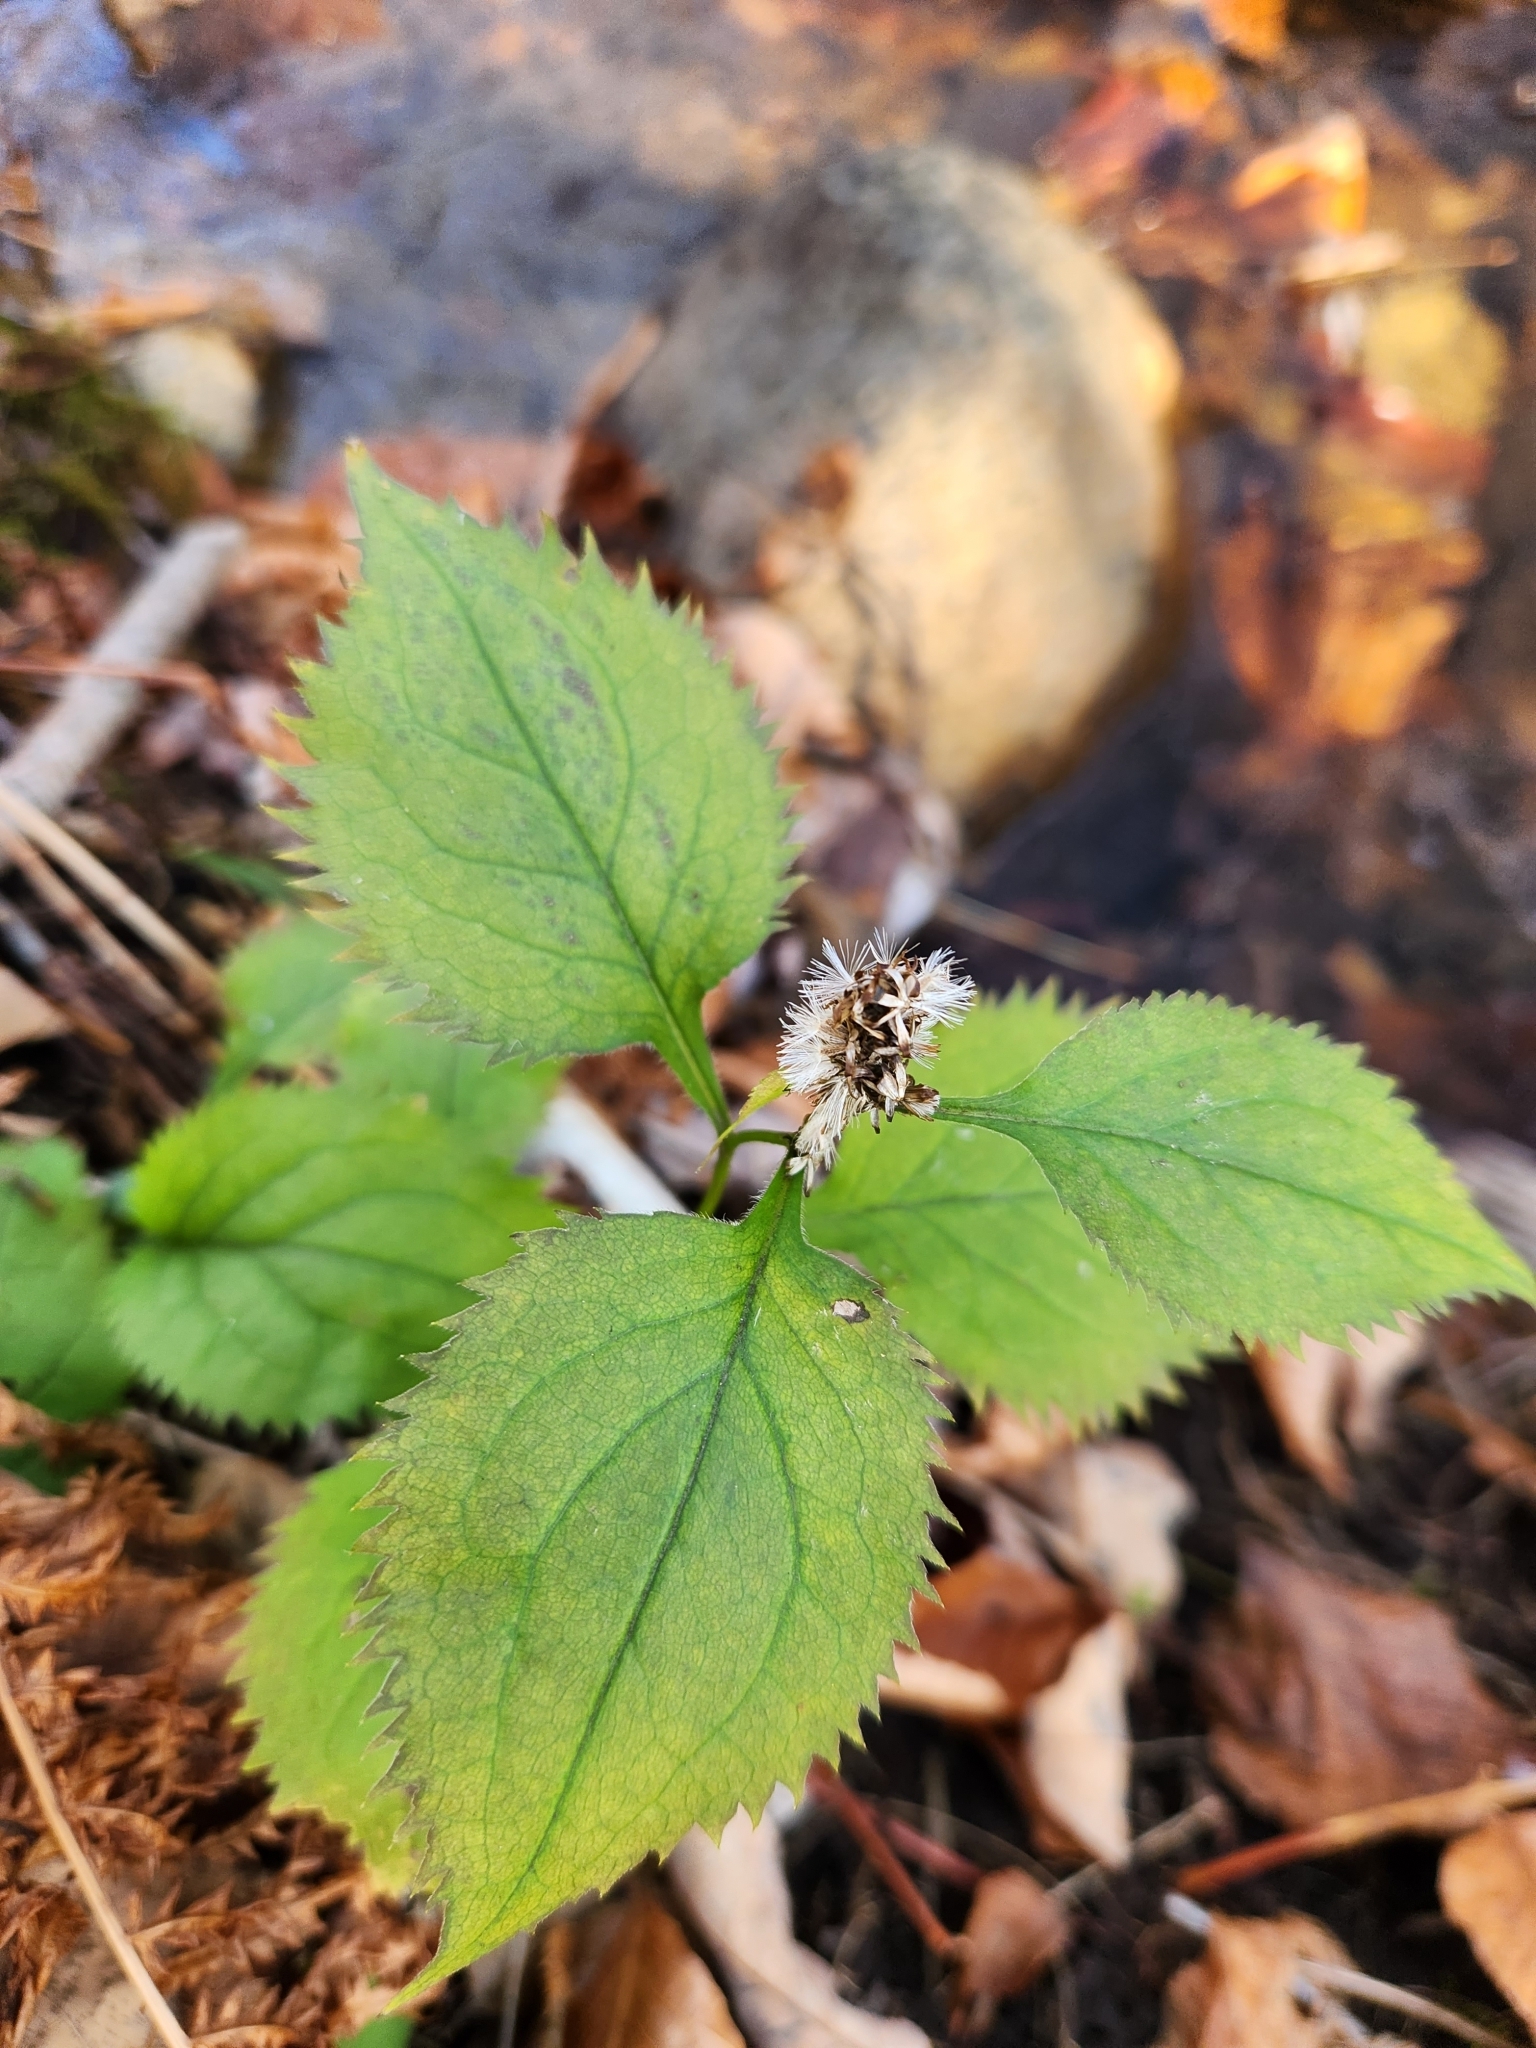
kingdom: Plantae
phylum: Tracheophyta
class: Magnoliopsida
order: Asterales
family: Asteraceae
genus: Solidago
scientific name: Solidago flexicaulis
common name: Zig-zag goldenrod
